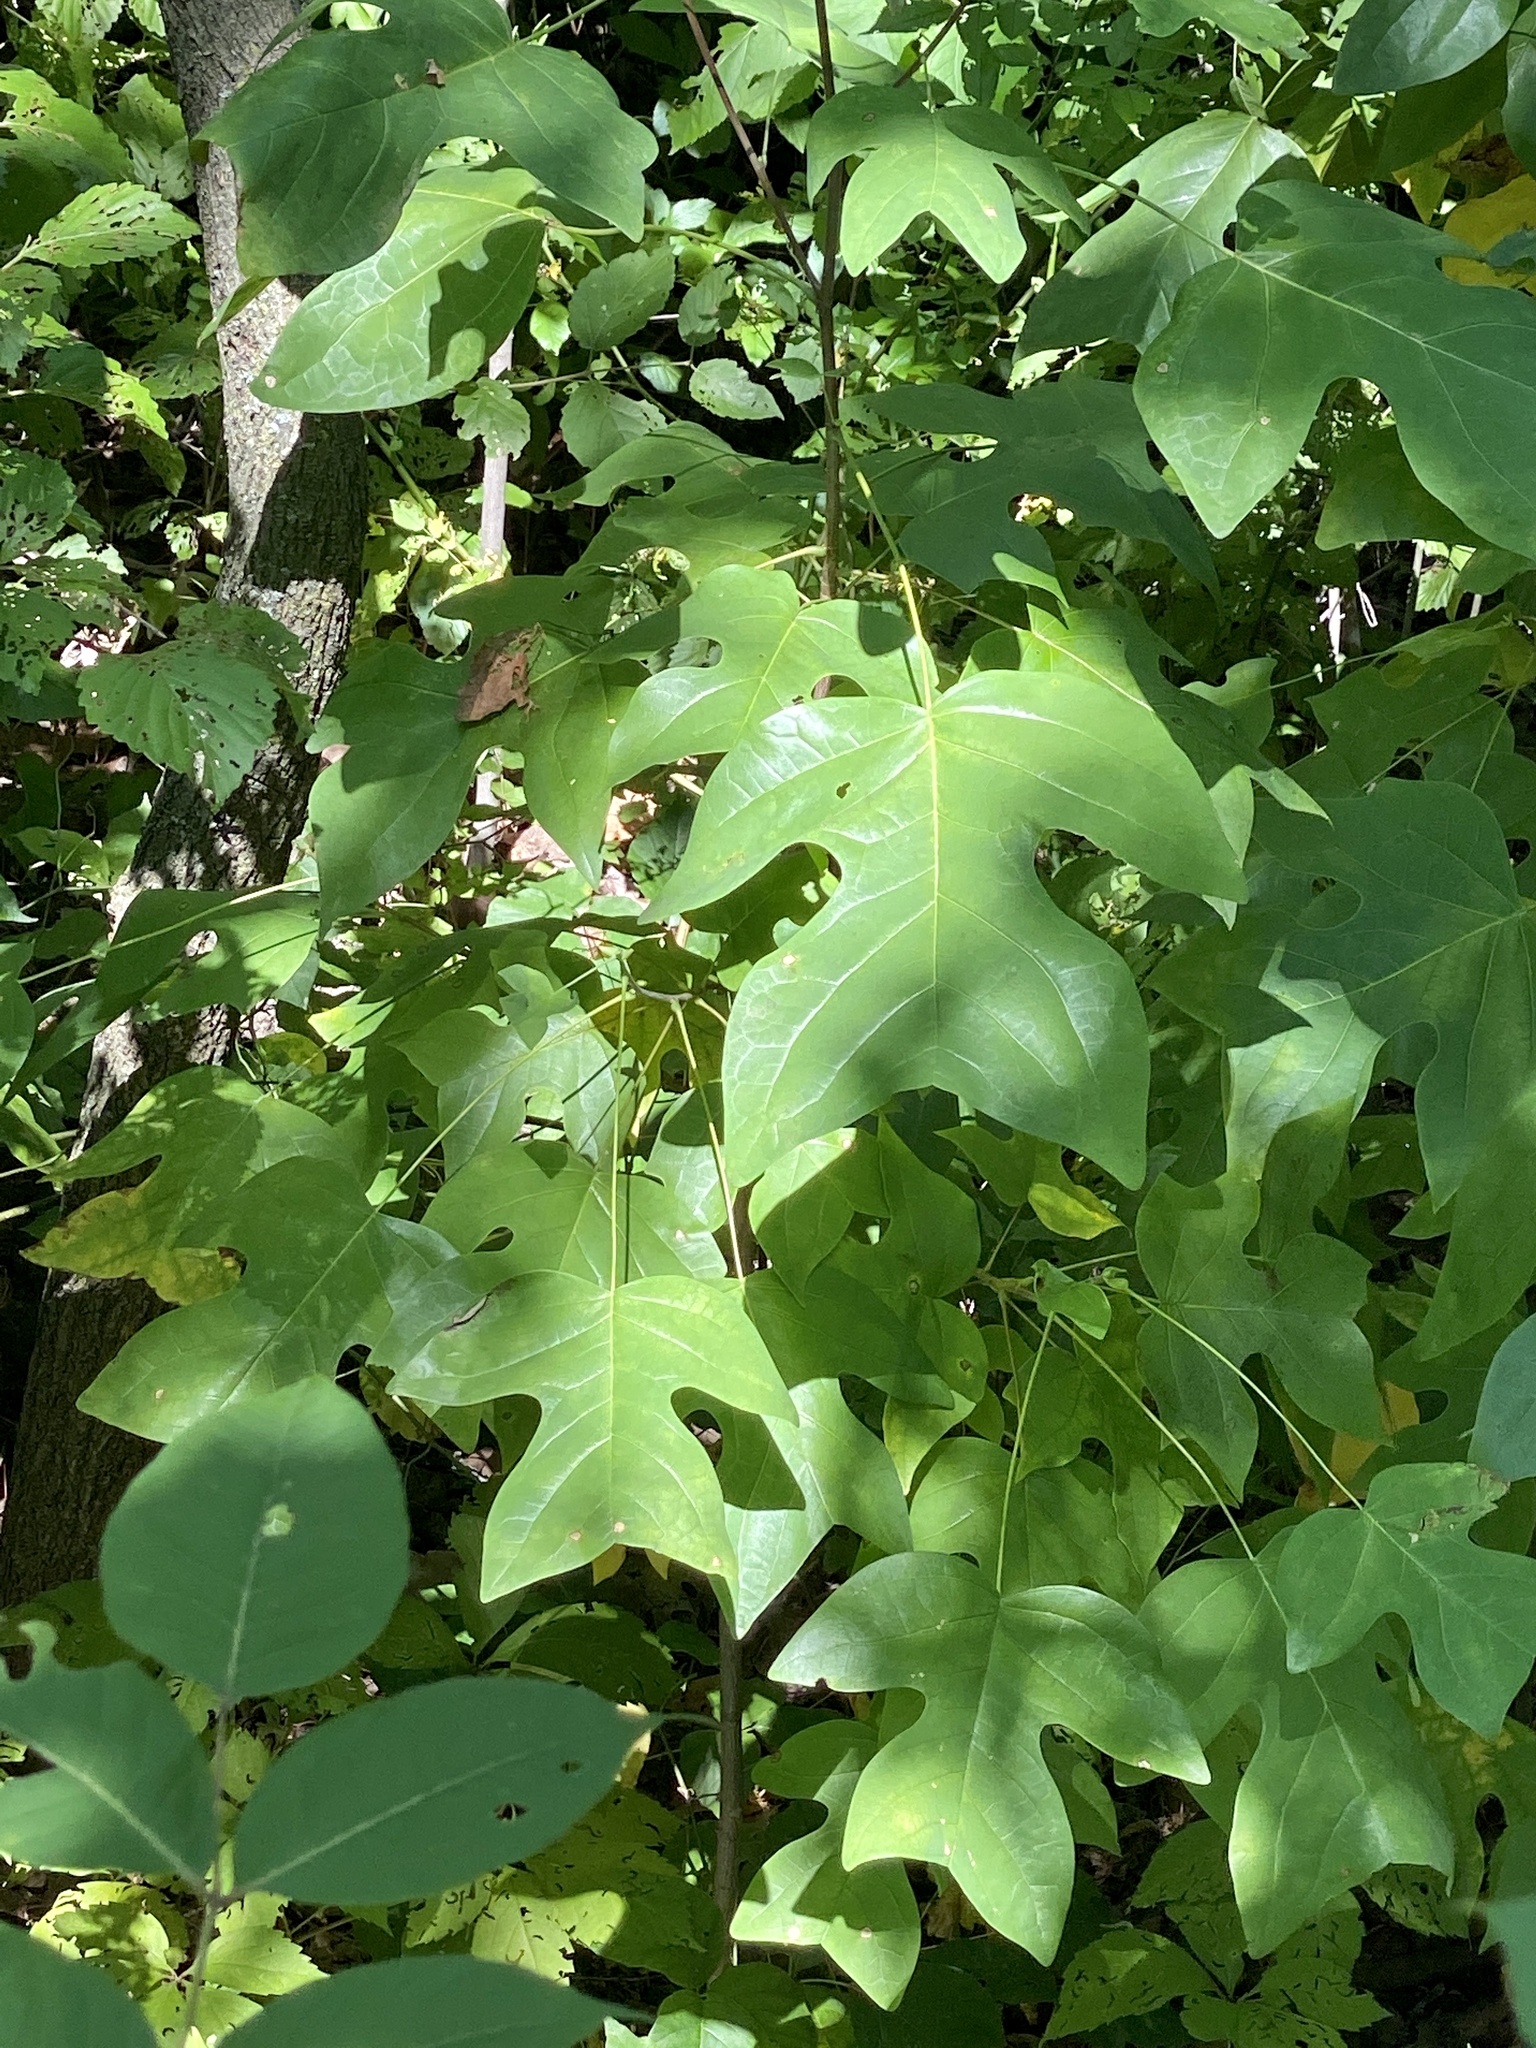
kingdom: Plantae
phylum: Tracheophyta
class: Magnoliopsida
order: Magnoliales
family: Magnoliaceae
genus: Liriodendron
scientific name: Liriodendron tulipifera
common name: Tulip tree
